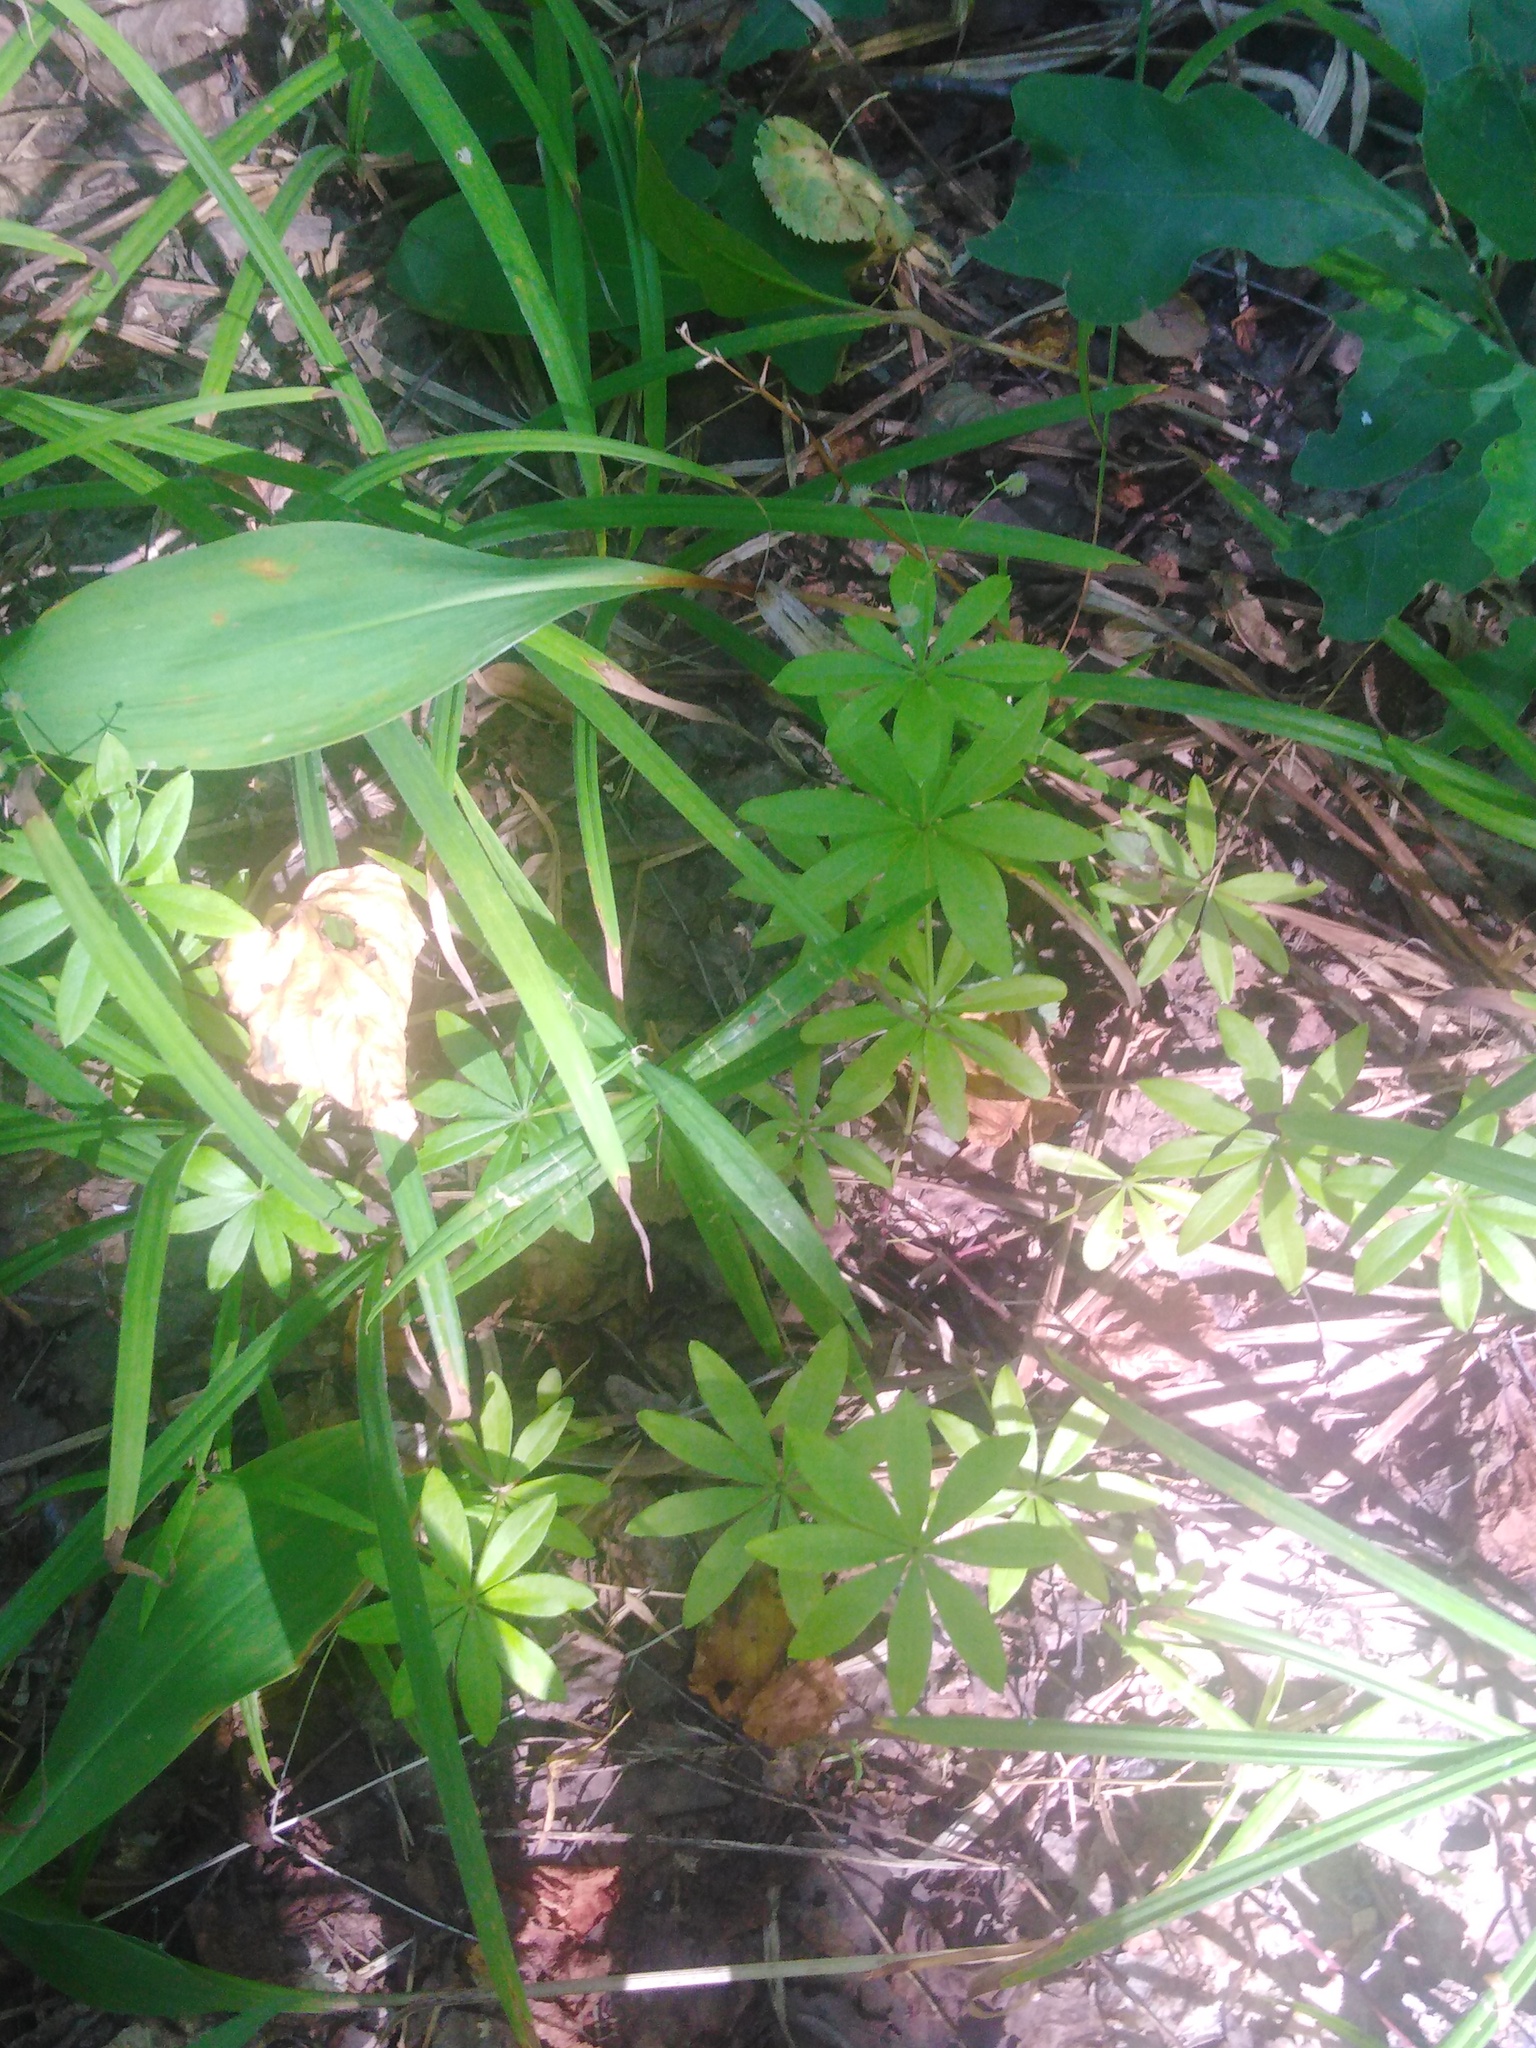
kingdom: Plantae
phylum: Tracheophyta
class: Magnoliopsida
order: Gentianales
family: Rubiaceae
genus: Galium
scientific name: Galium odoratum
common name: Sweet woodruff
